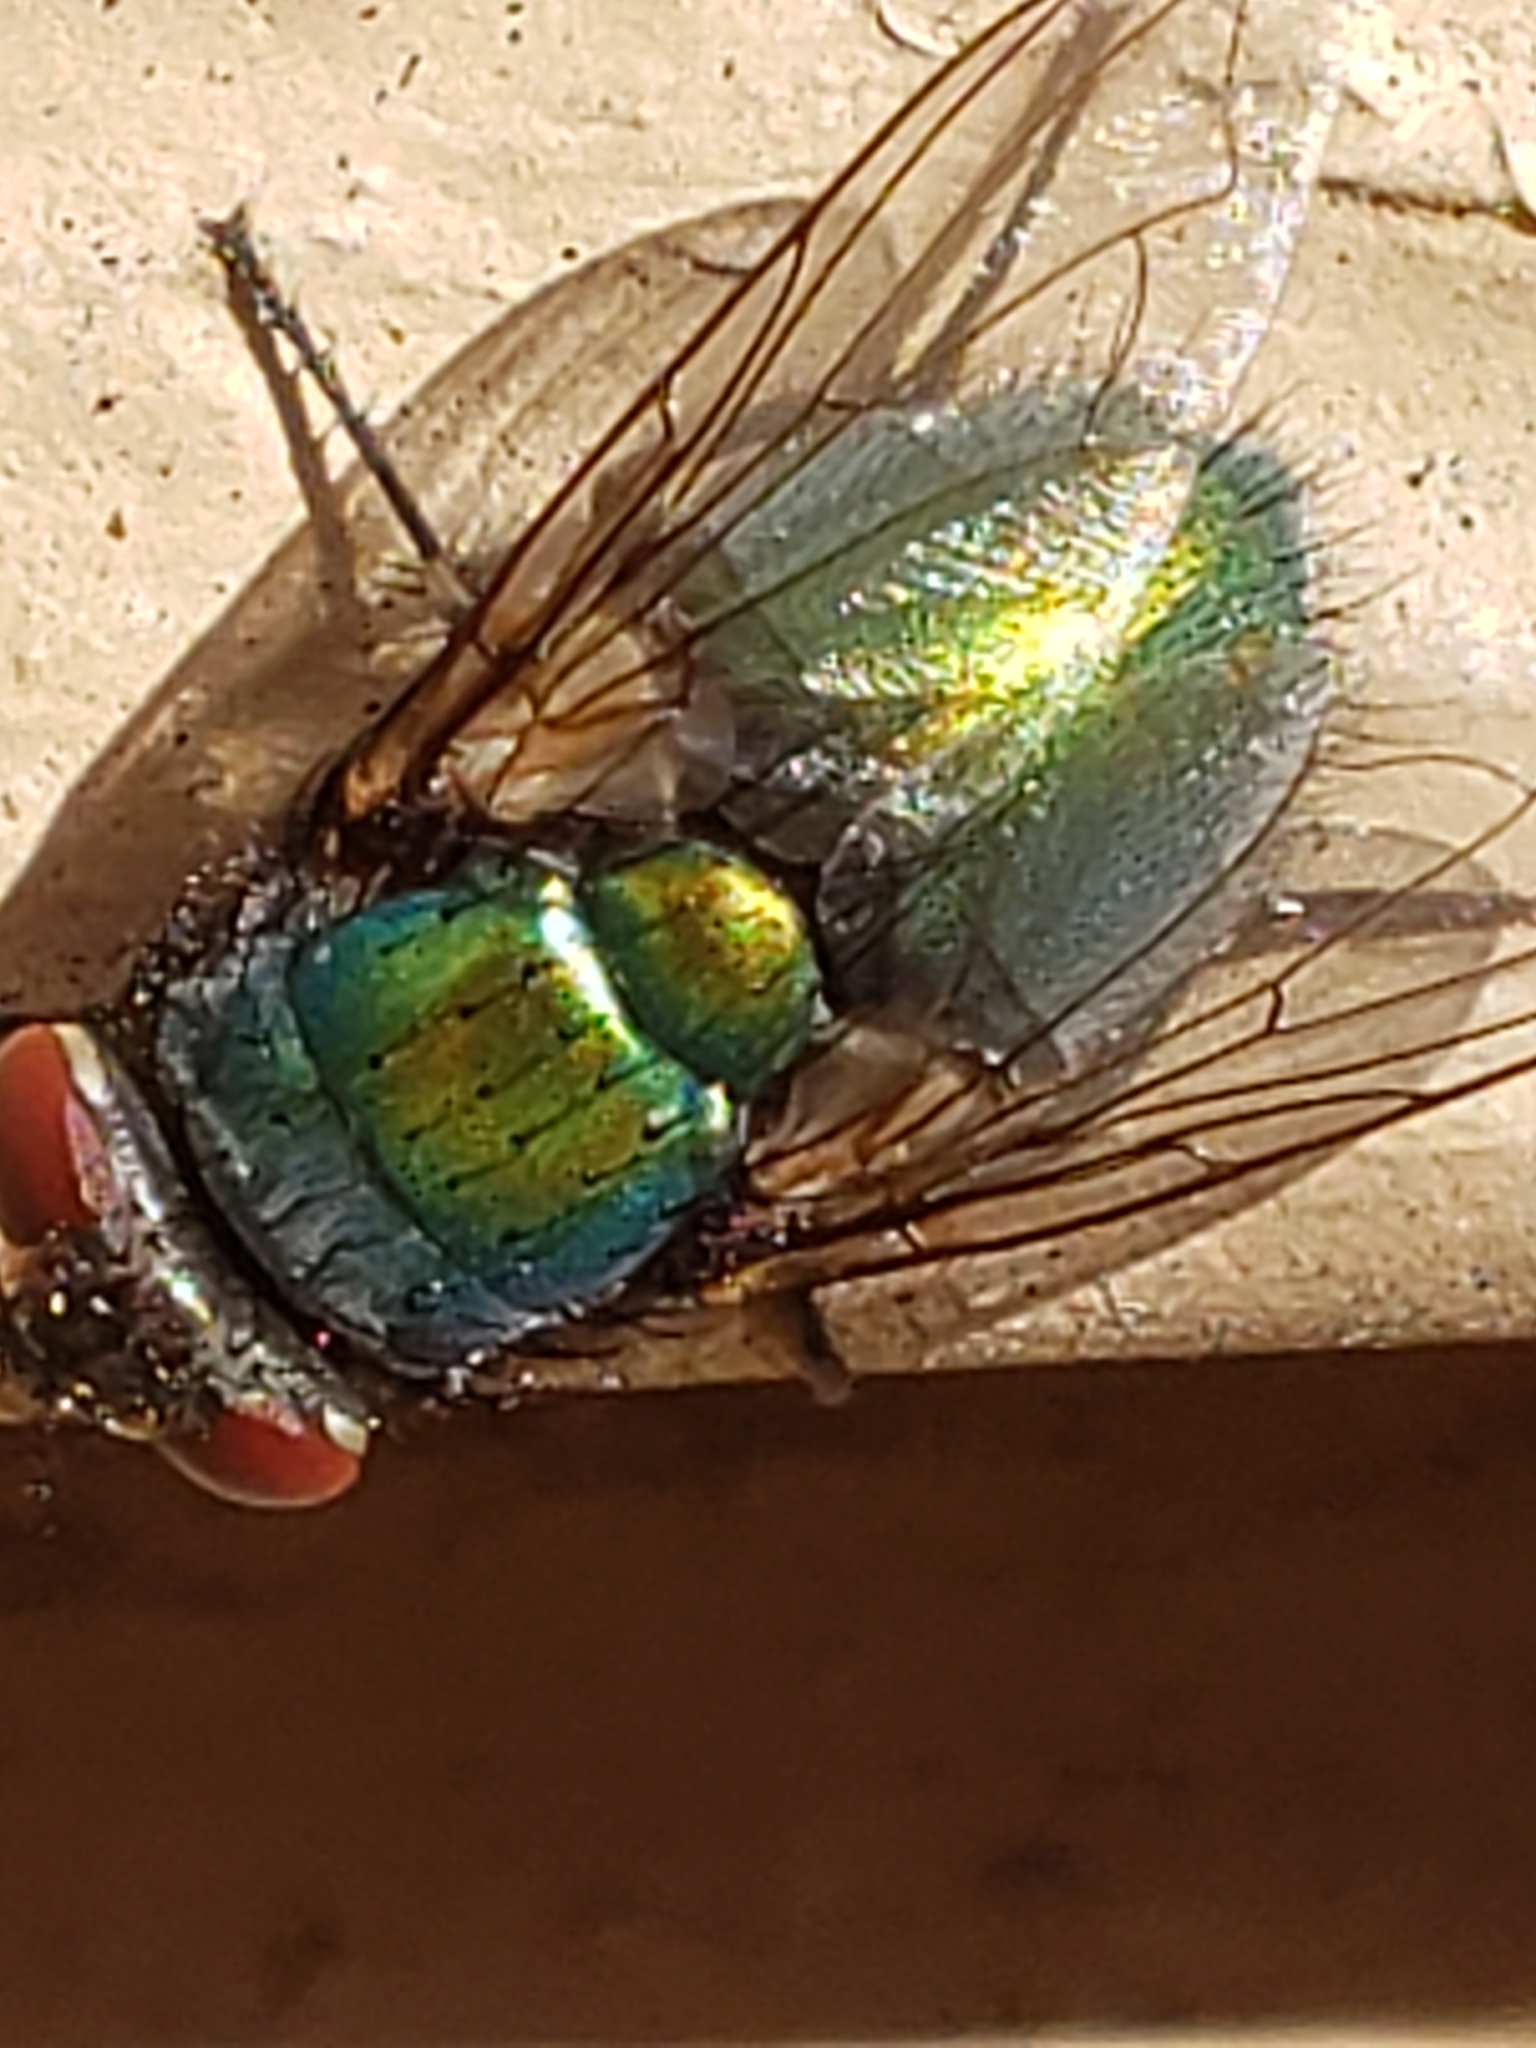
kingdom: Animalia
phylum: Arthropoda
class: Insecta
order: Diptera
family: Calliphoridae
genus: Lucilia
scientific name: Lucilia sericata
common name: Blow fly
